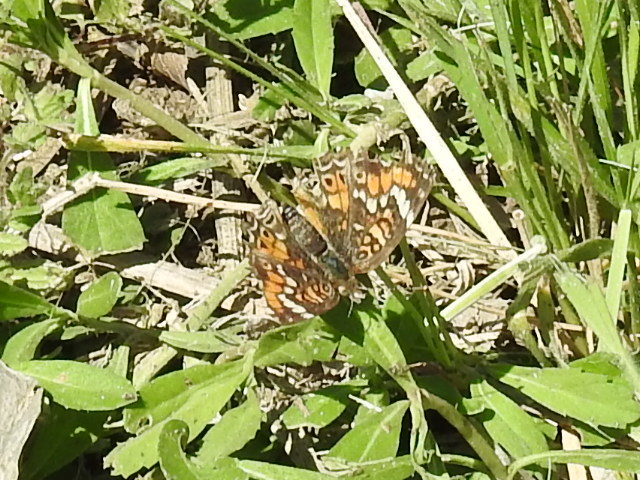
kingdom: Animalia
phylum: Arthropoda
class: Insecta
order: Lepidoptera
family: Nymphalidae
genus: Phyciodes
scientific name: Phyciodes phaon
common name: Phaon crescent
